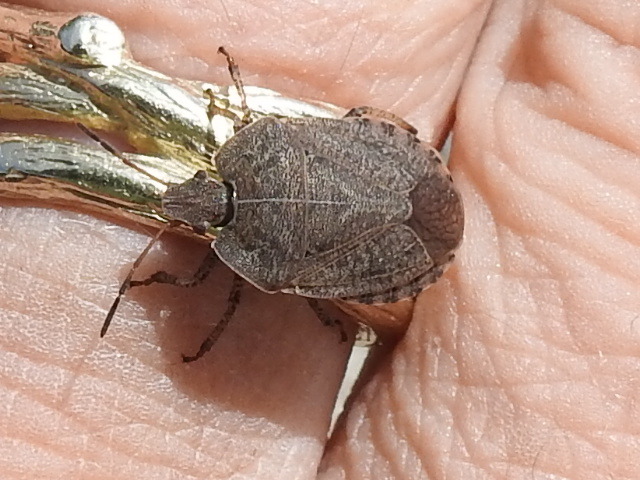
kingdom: Animalia
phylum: Arthropoda
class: Insecta
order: Hemiptera
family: Pentatomidae
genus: Menecles
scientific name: Menecles insertus
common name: Elf shoe stink bug
